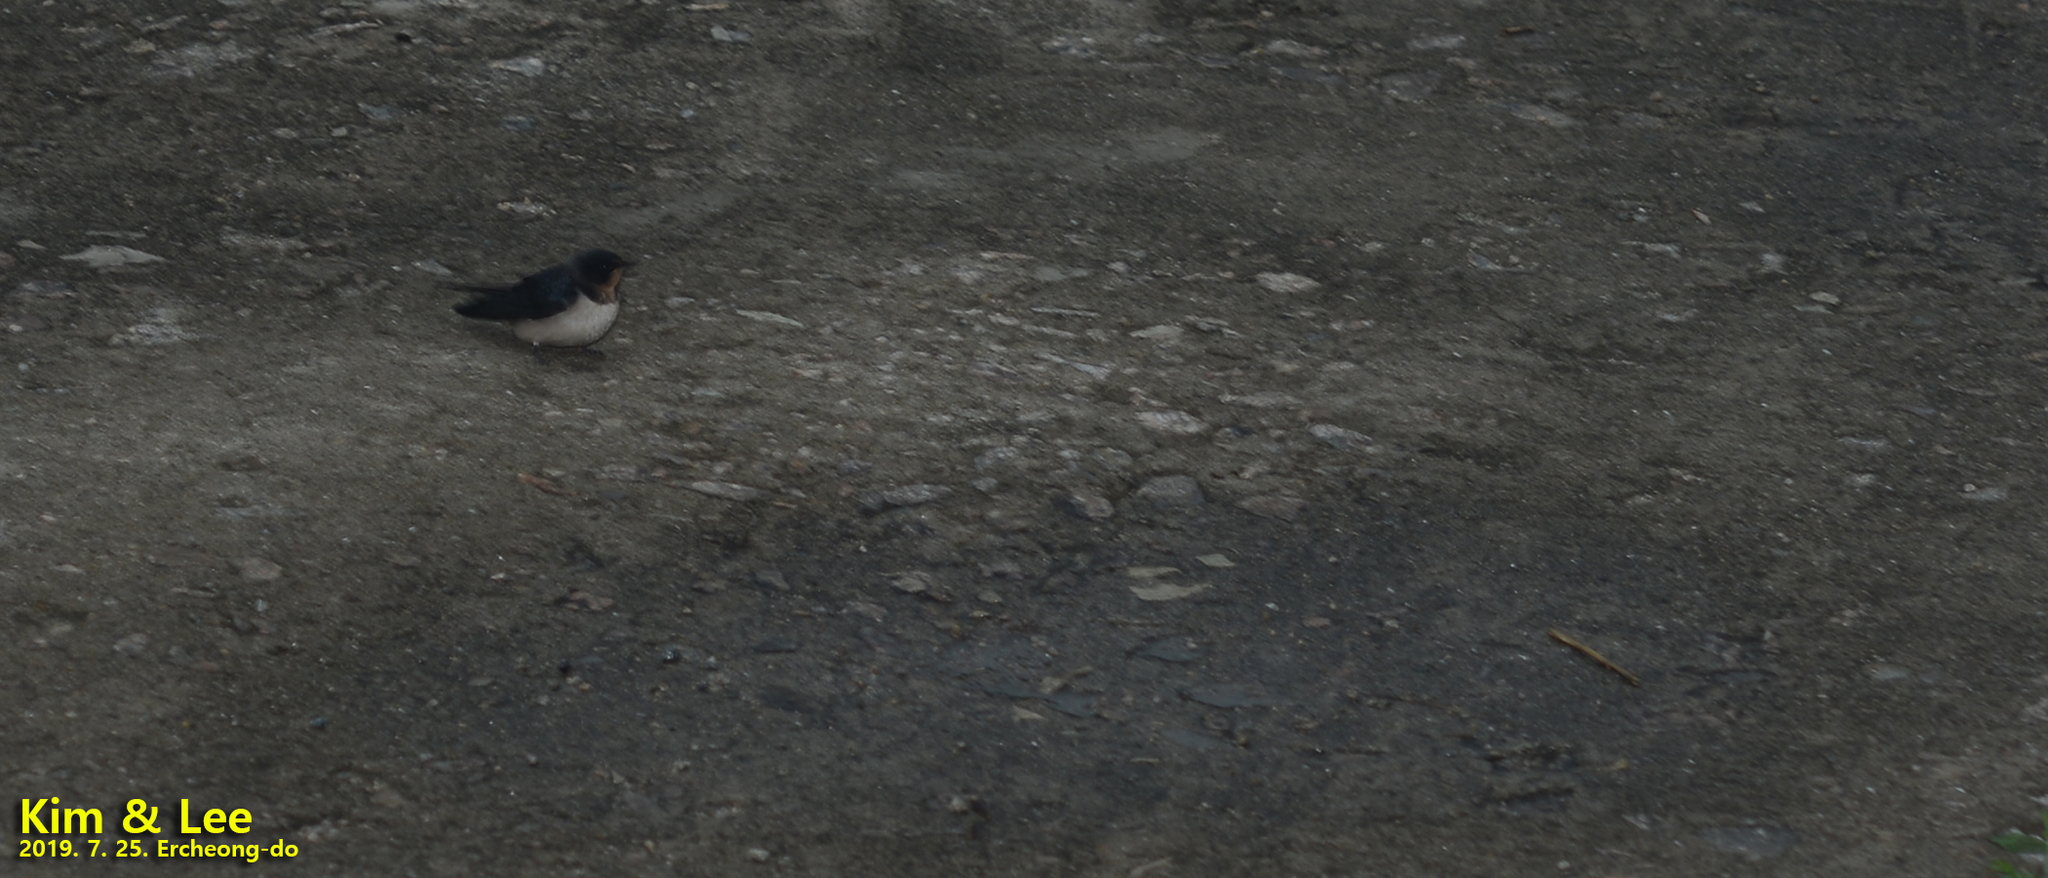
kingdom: Animalia
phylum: Chordata
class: Aves
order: Passeriformes
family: Hirundinidae
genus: Hirundo
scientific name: Hirundo rustica
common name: Barn swallow
